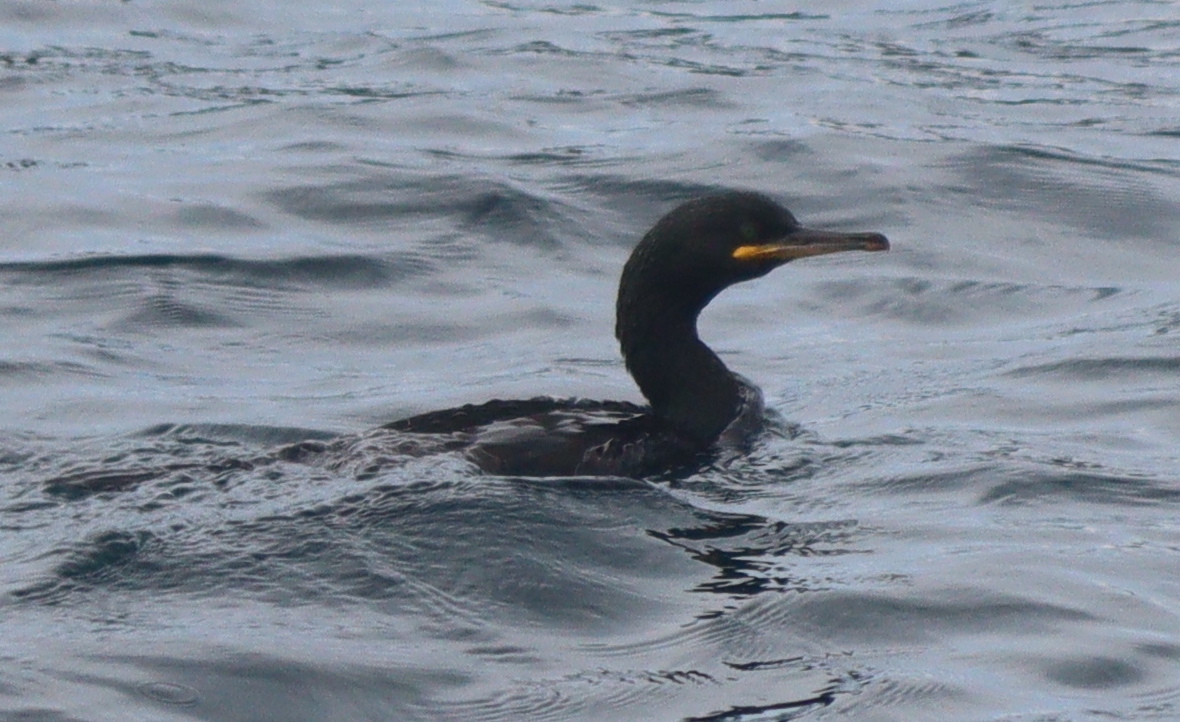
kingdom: Animalia
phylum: Chordata
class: Aves
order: Suliformes
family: Phalacrocoracidae
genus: Phalacrocorax
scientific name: Phalacrocorax aristotelis
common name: European shag
